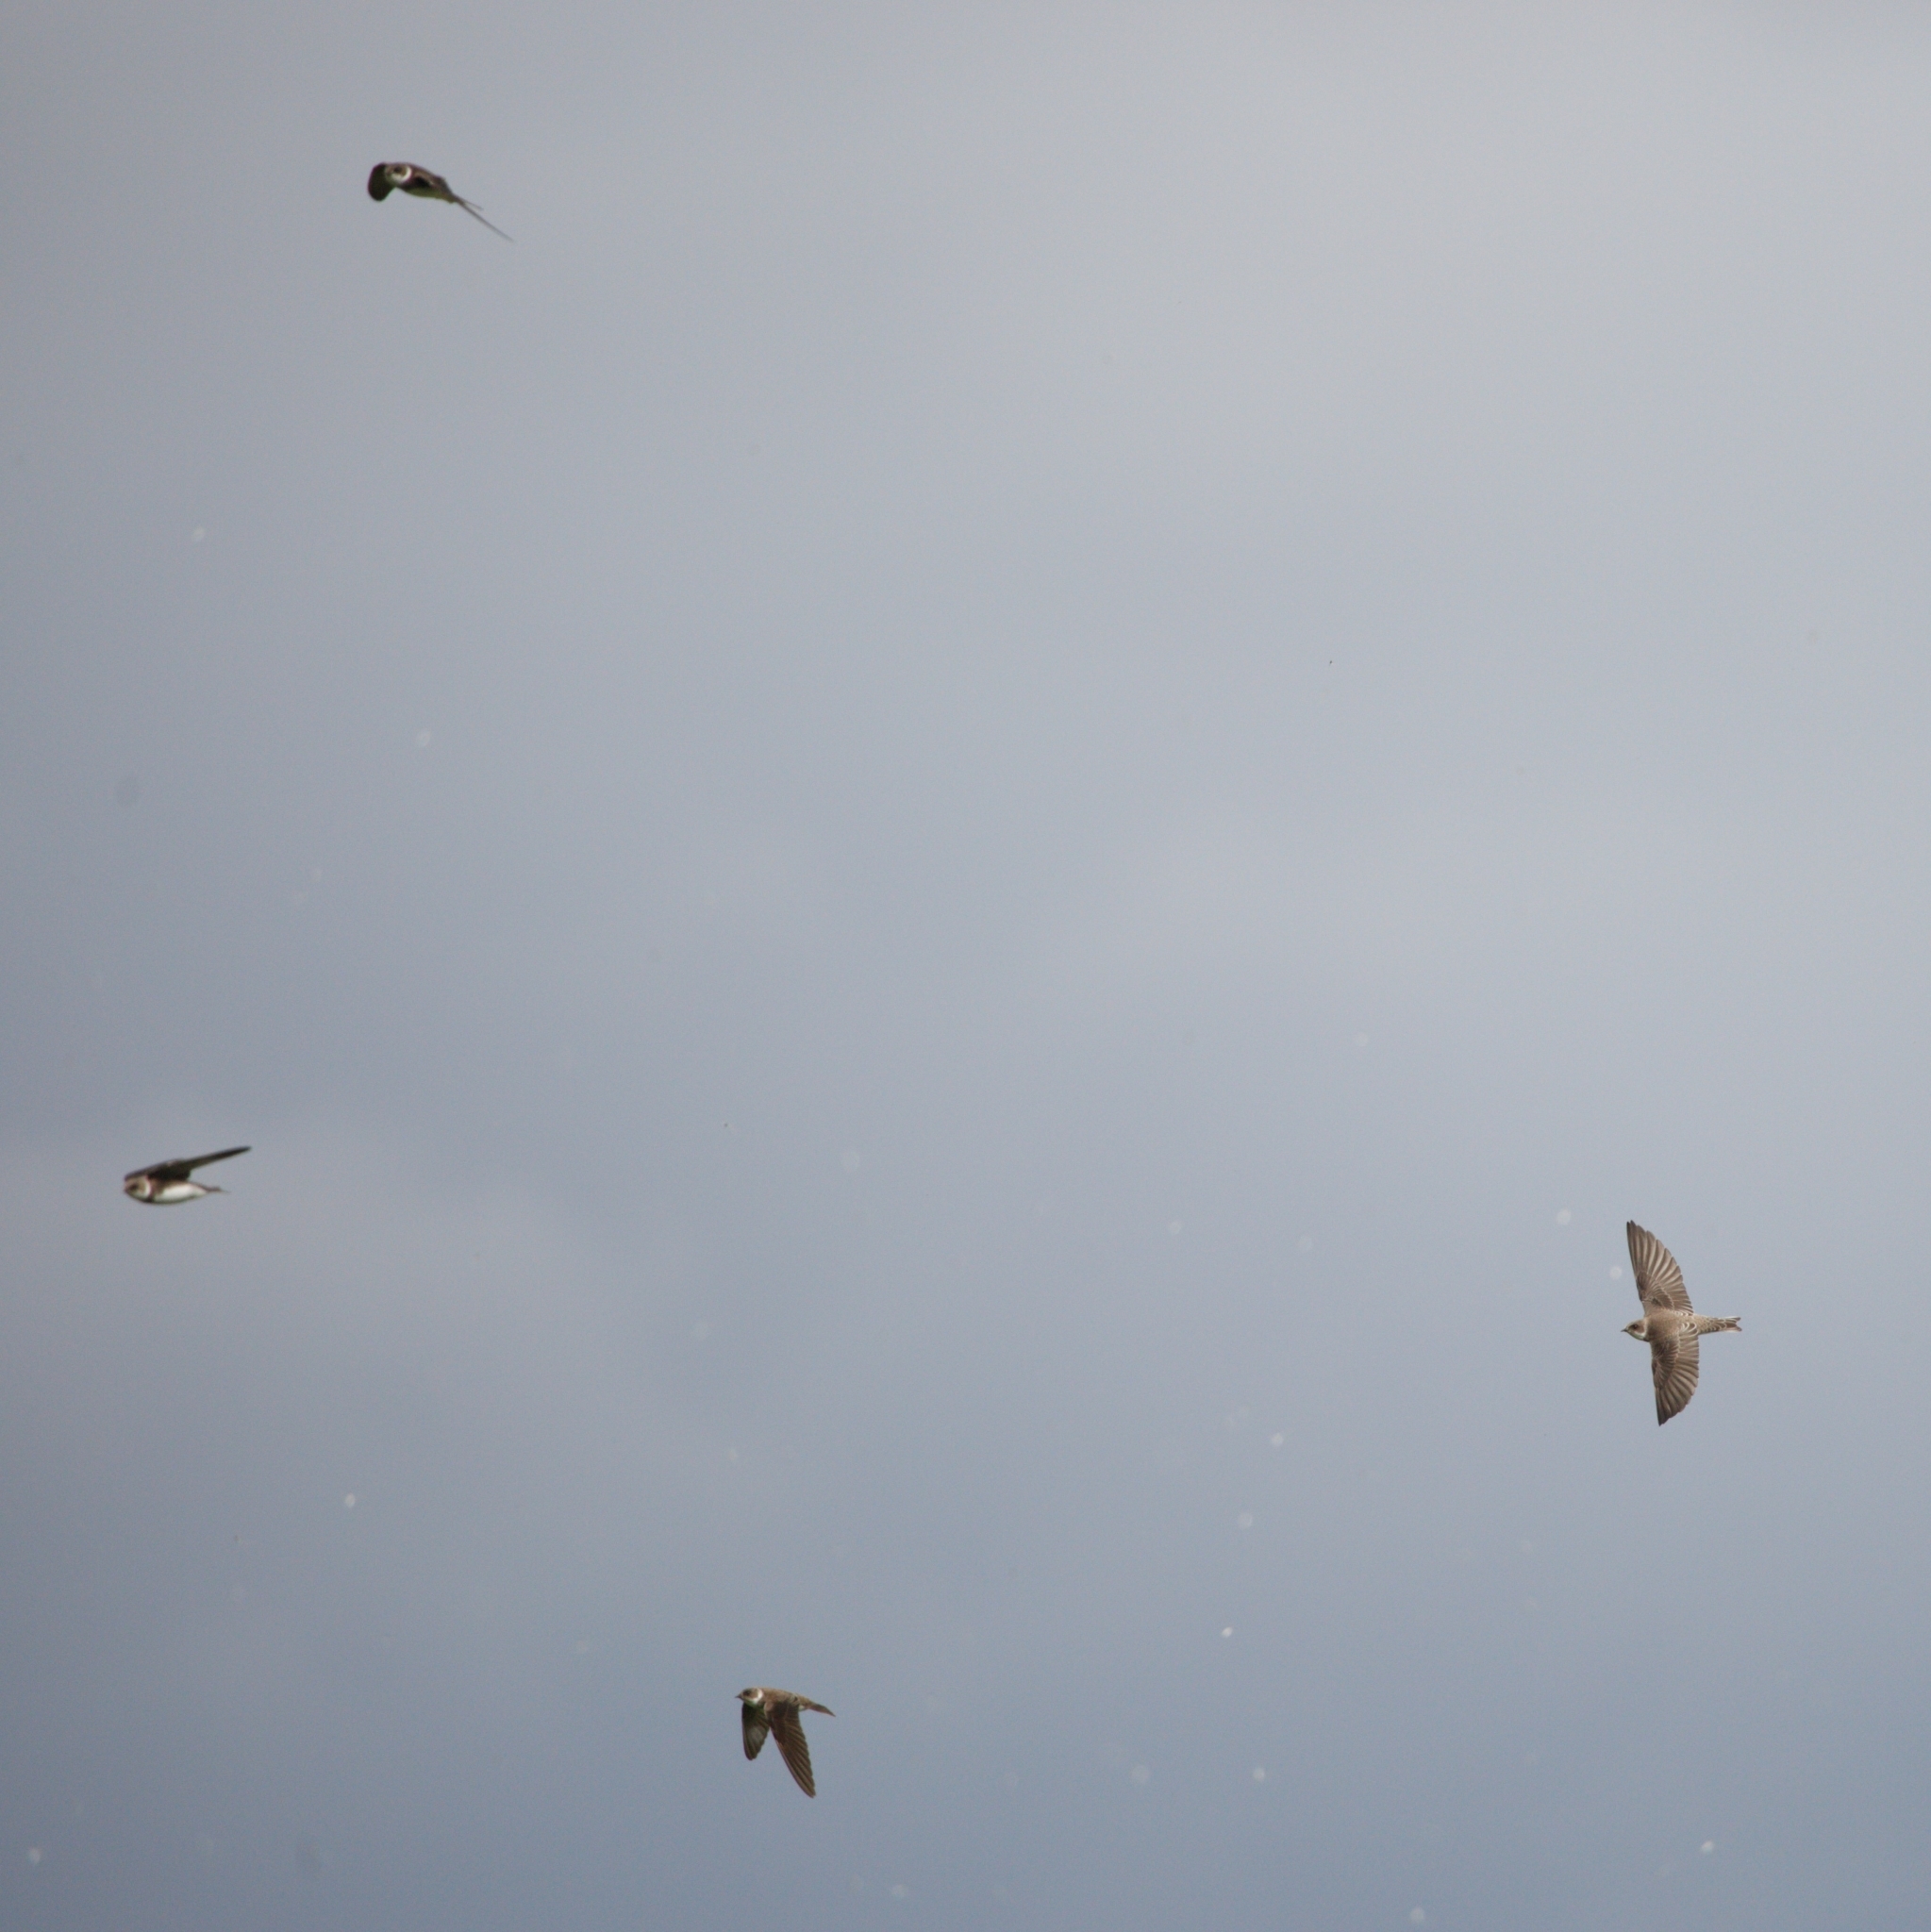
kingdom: Animalia
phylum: Chordata
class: Aves
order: Passeriformes
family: Hirundinidae
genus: Riparia
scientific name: Riparia riparia
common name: Sand martin
